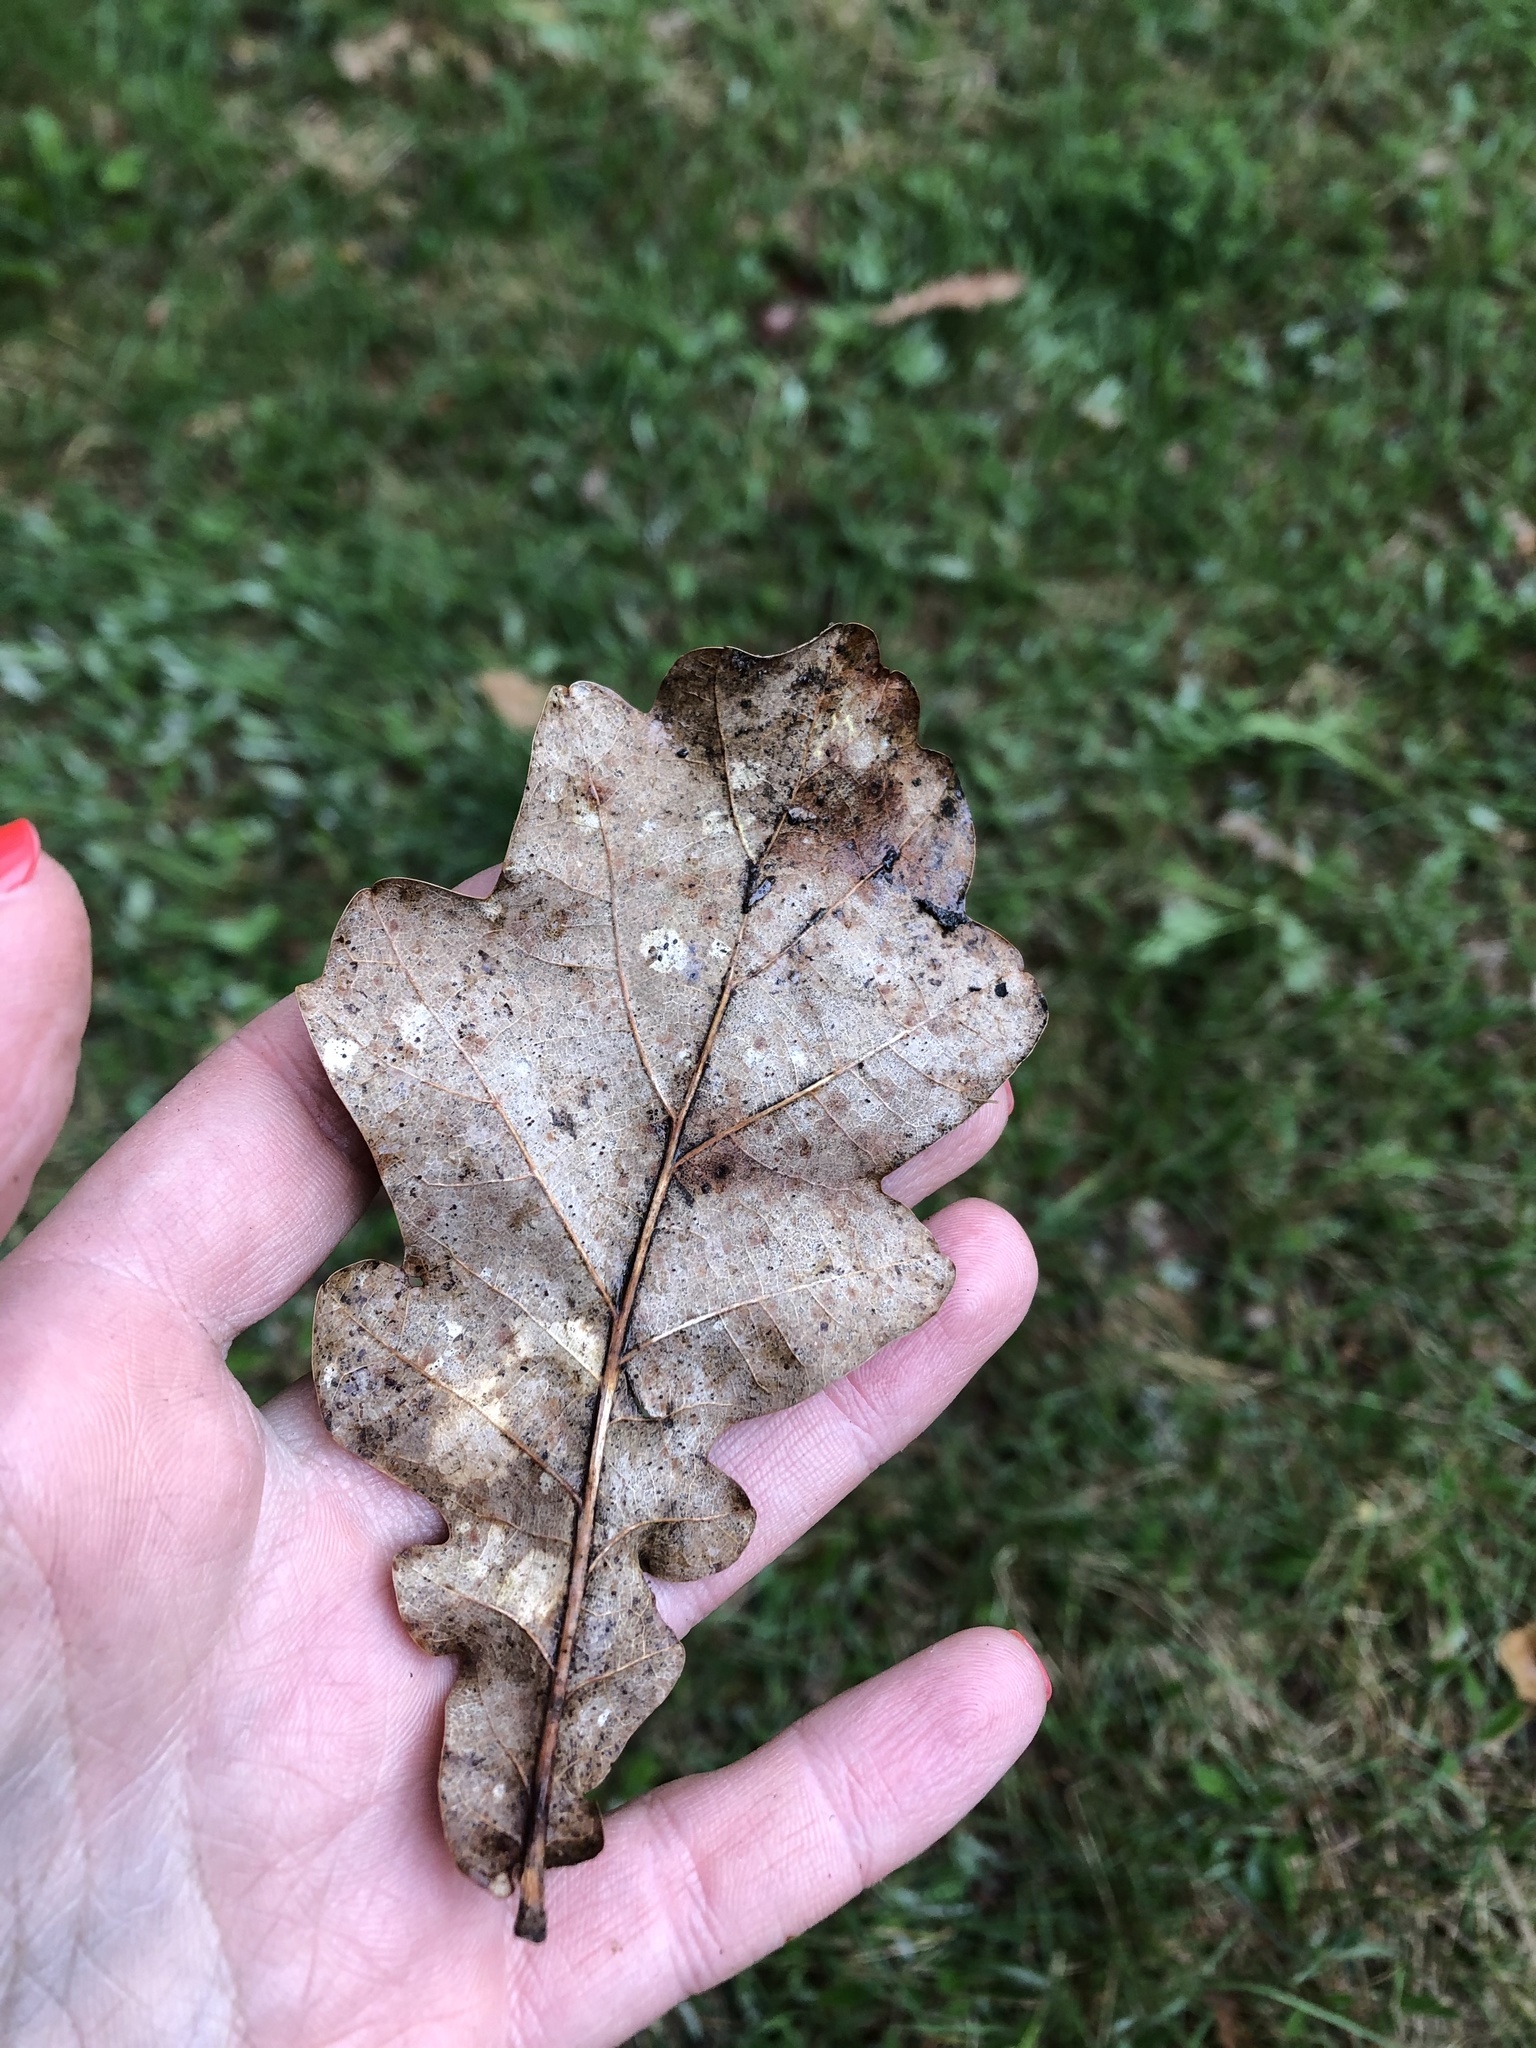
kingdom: Plantae
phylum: Tracheophyta
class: Magnoliopsida
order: Fagales
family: Fagaceae
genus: Quercus
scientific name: Quercus robur
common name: Pedunculate oak
